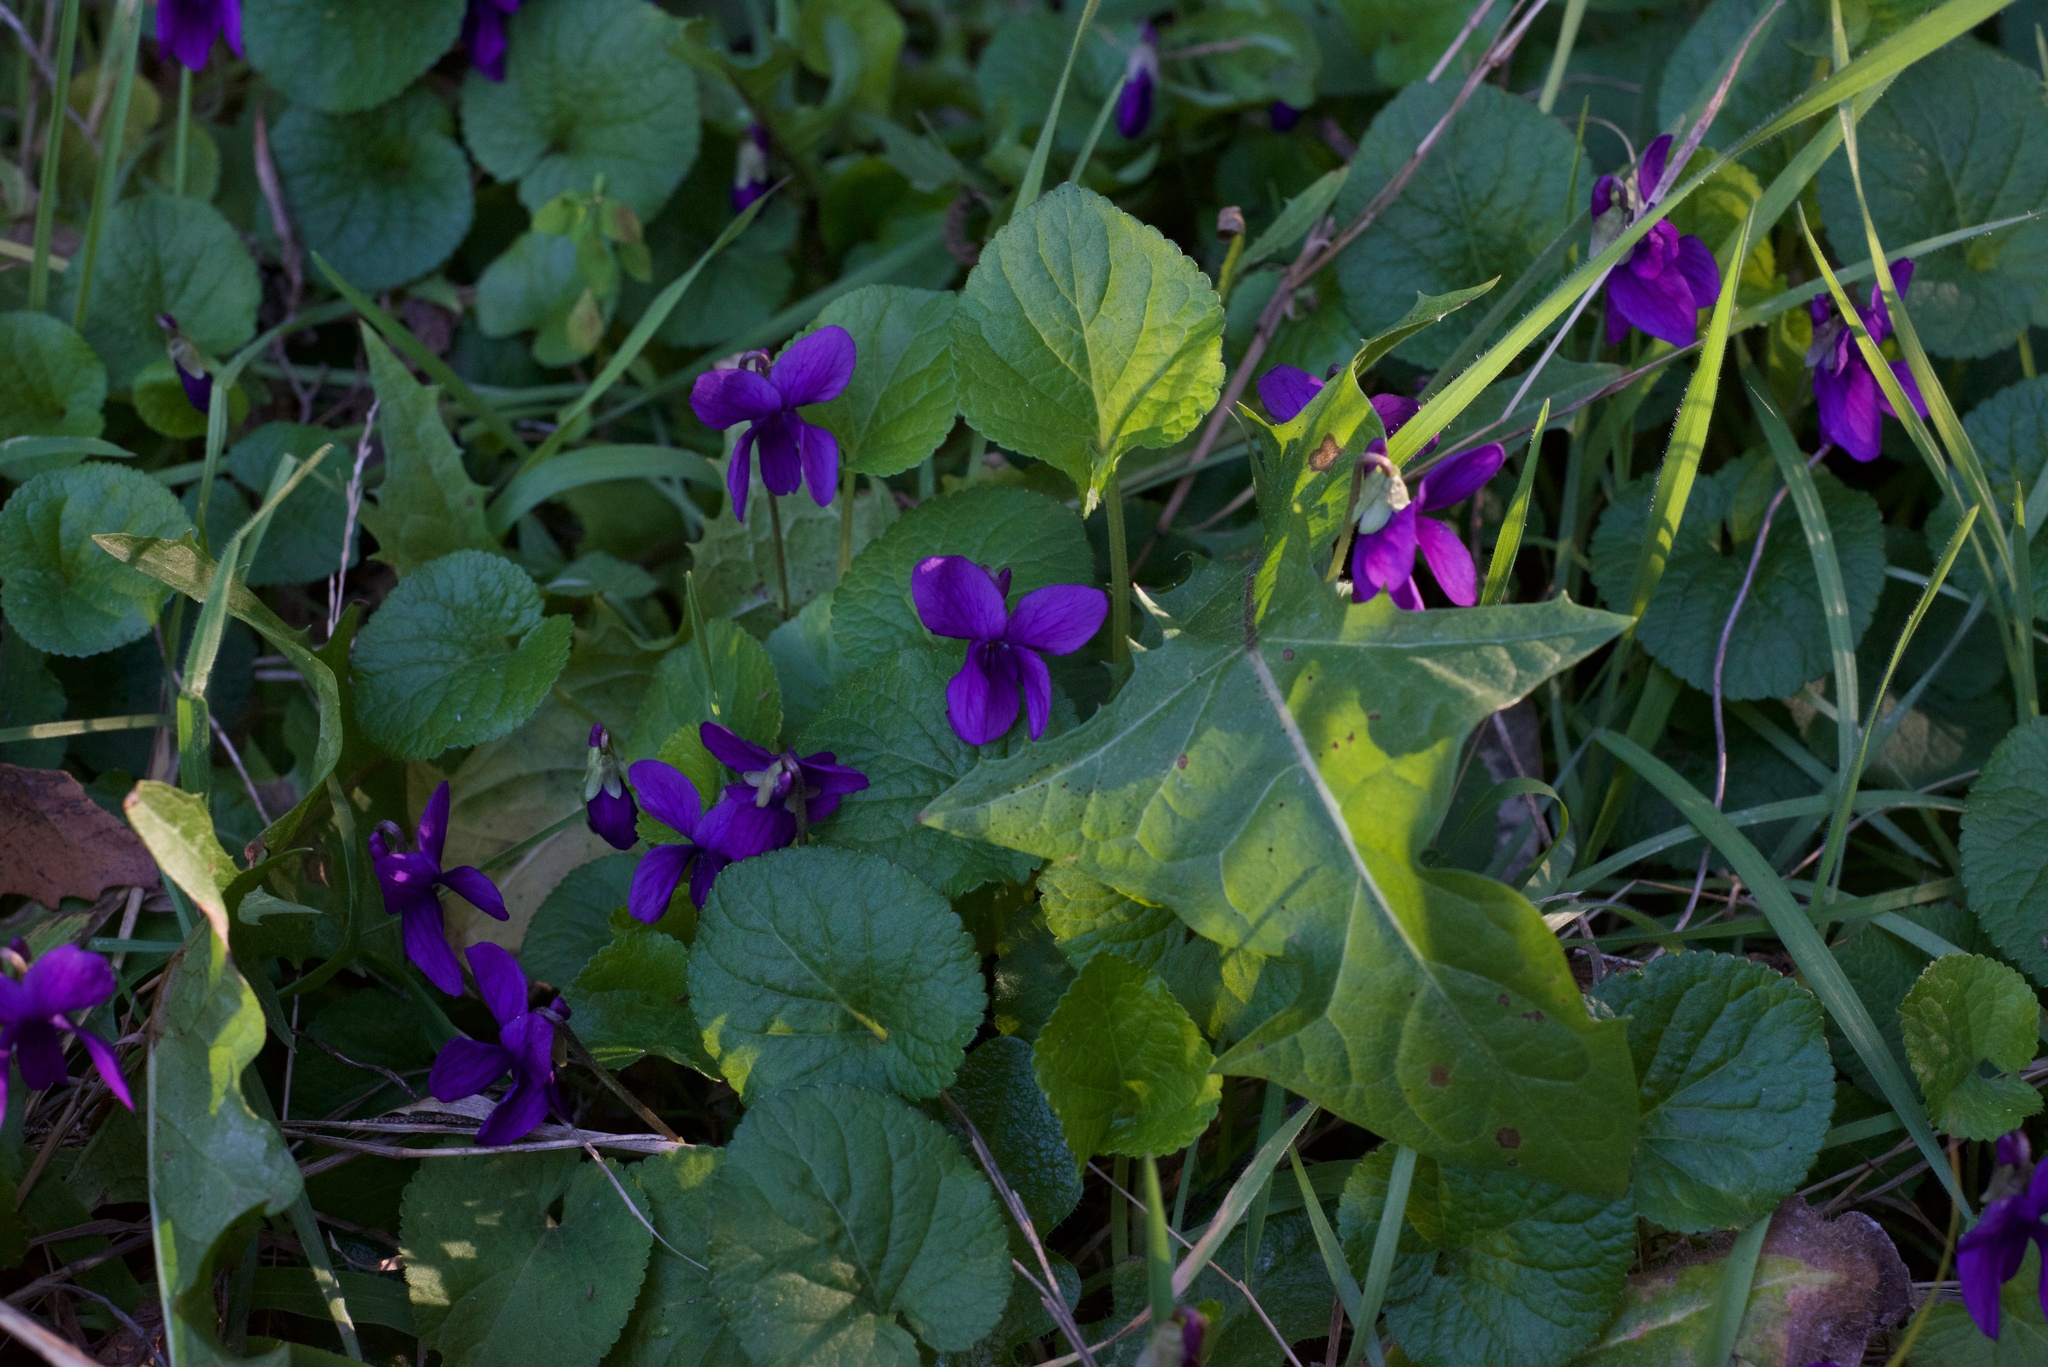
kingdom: Plantae
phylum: Tracheophyta
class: Magnoliopsida
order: Malpighiales
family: Violaceae
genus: Viola
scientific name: Viola odorata
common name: Sweet violet
